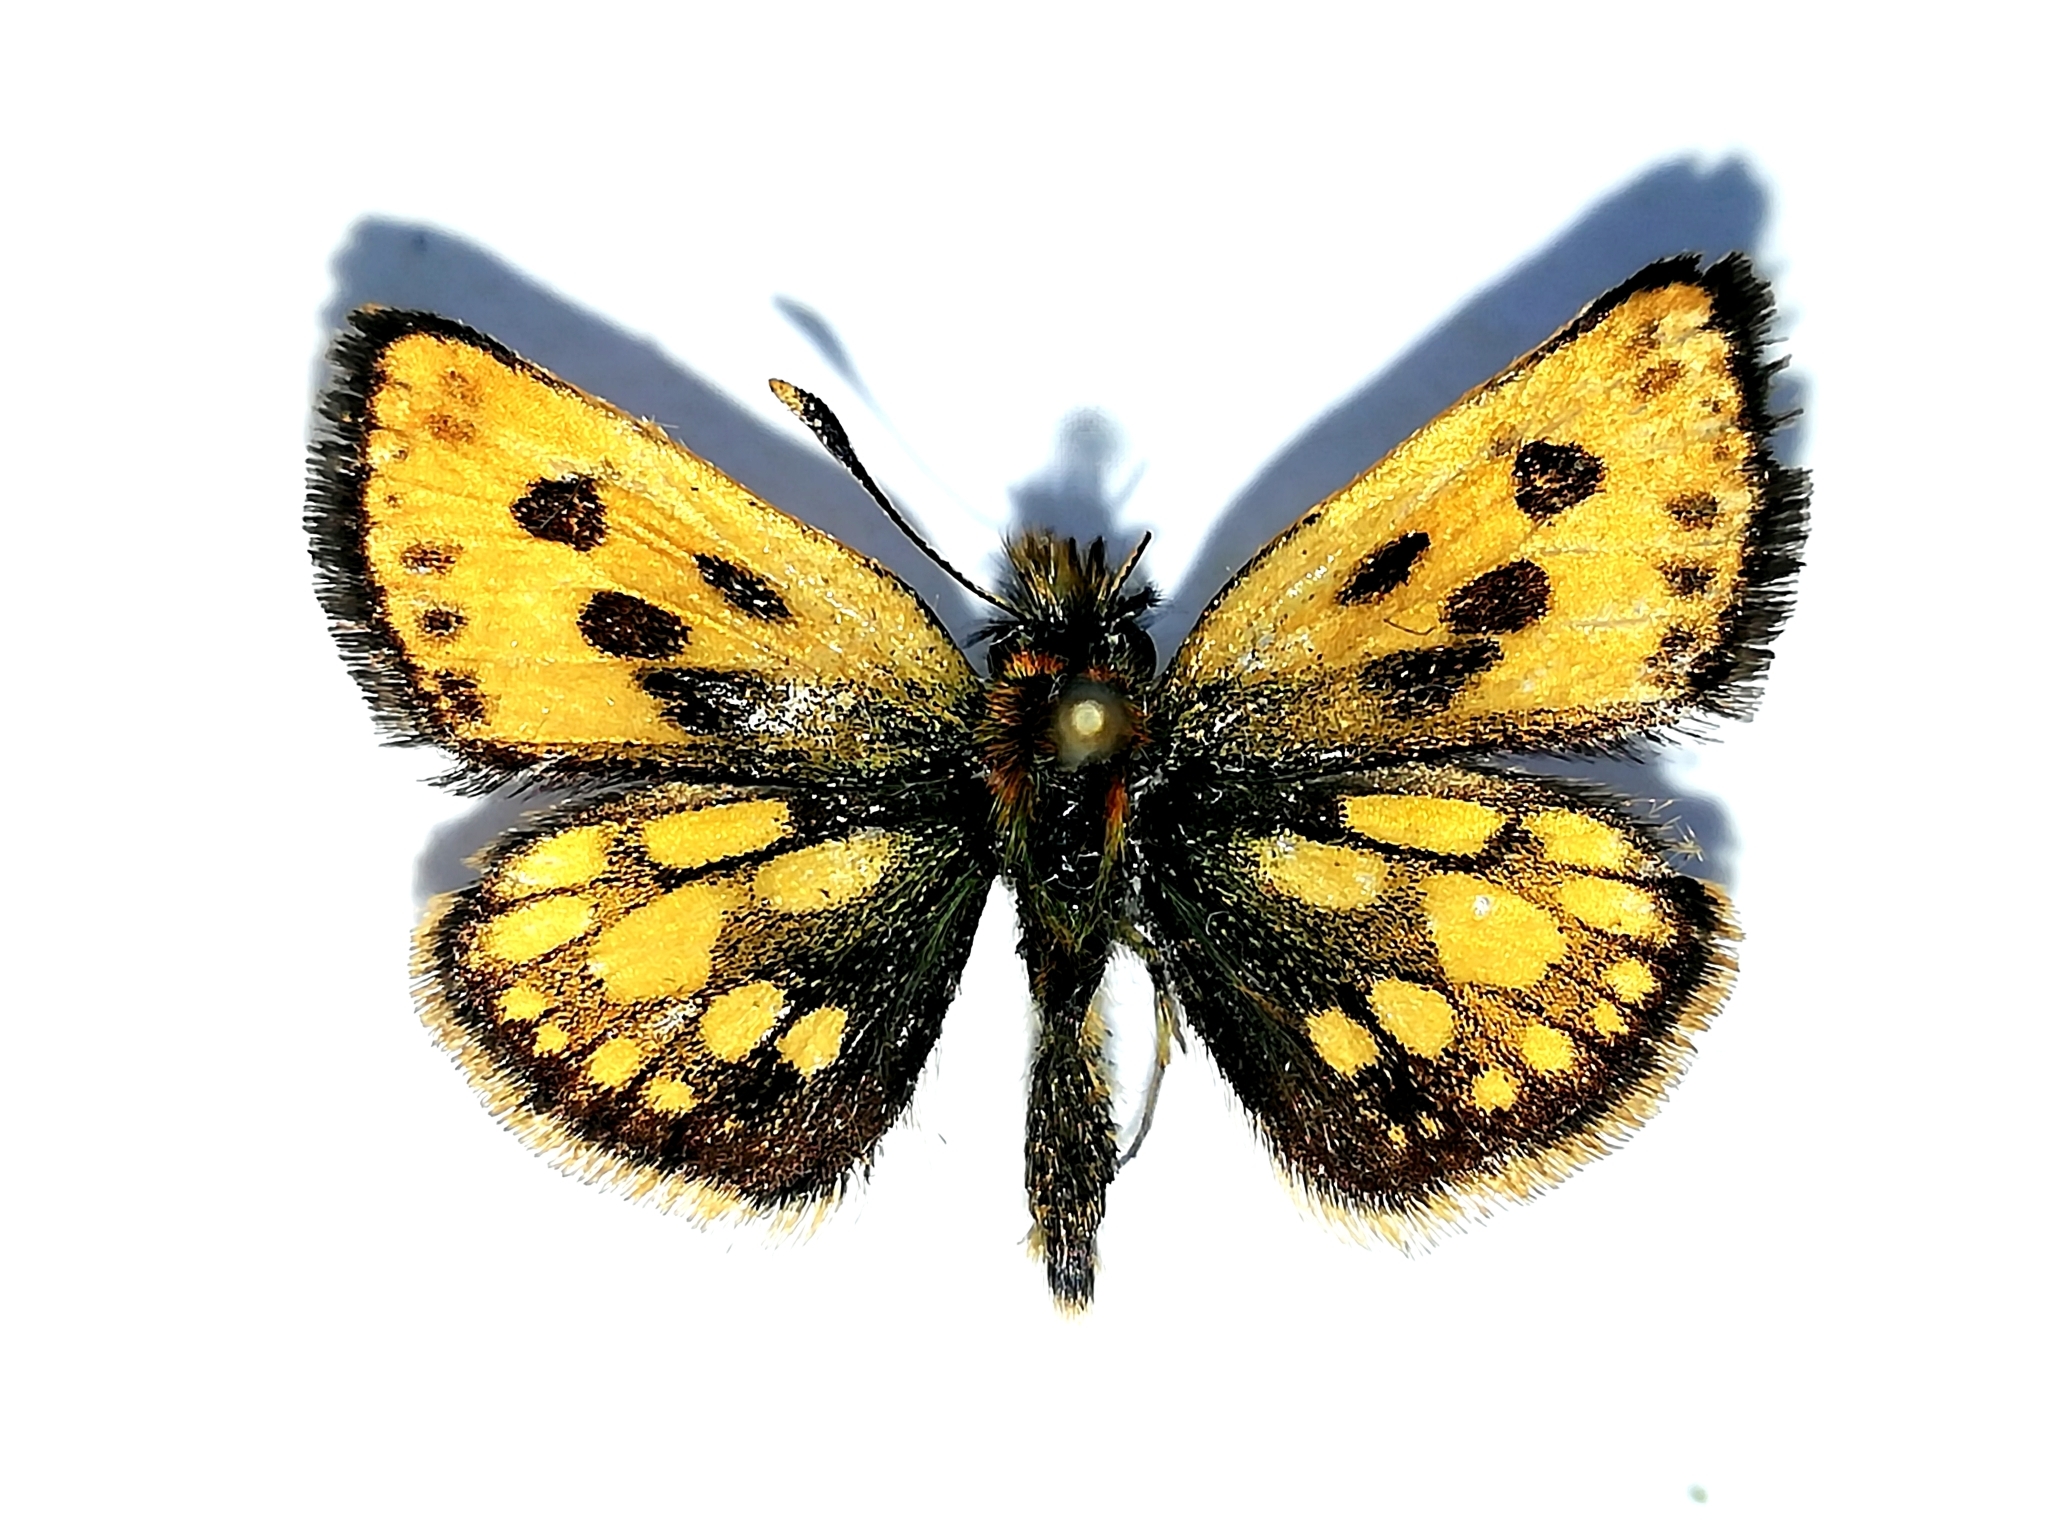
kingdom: Animalia
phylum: Arthropoda
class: Insecta
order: Lepidoptera
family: Hesperiidae
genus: Carterocephalus
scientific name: Carterocephalus silvicola
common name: Northern chequered skipper
